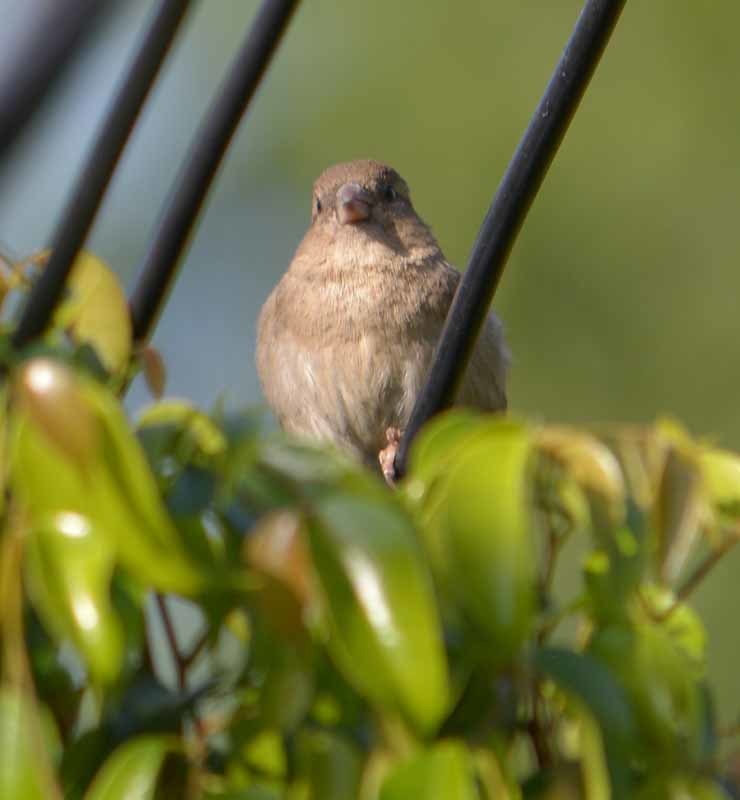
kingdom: Animalia
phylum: Chordata
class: Aves
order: Passeriformes
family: Passeridae
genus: Passer
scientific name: Passer domesticus
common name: House sparrow
